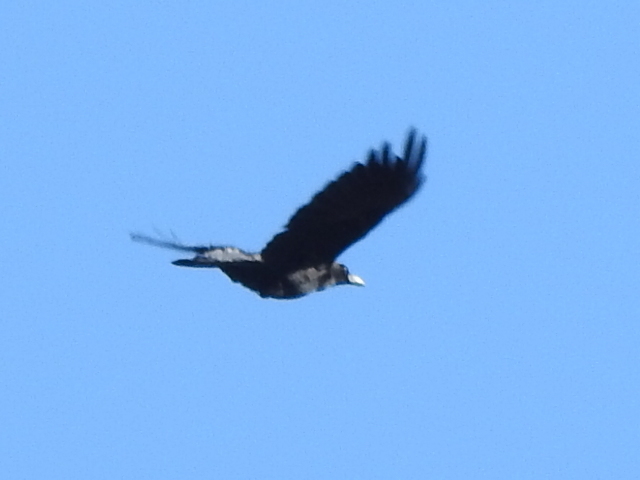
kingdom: Animalia
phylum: Chordata
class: Aves
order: Passeriformes
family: Corvidae
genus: Corvus
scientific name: Corvus brachyrhynchos
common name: American crow
